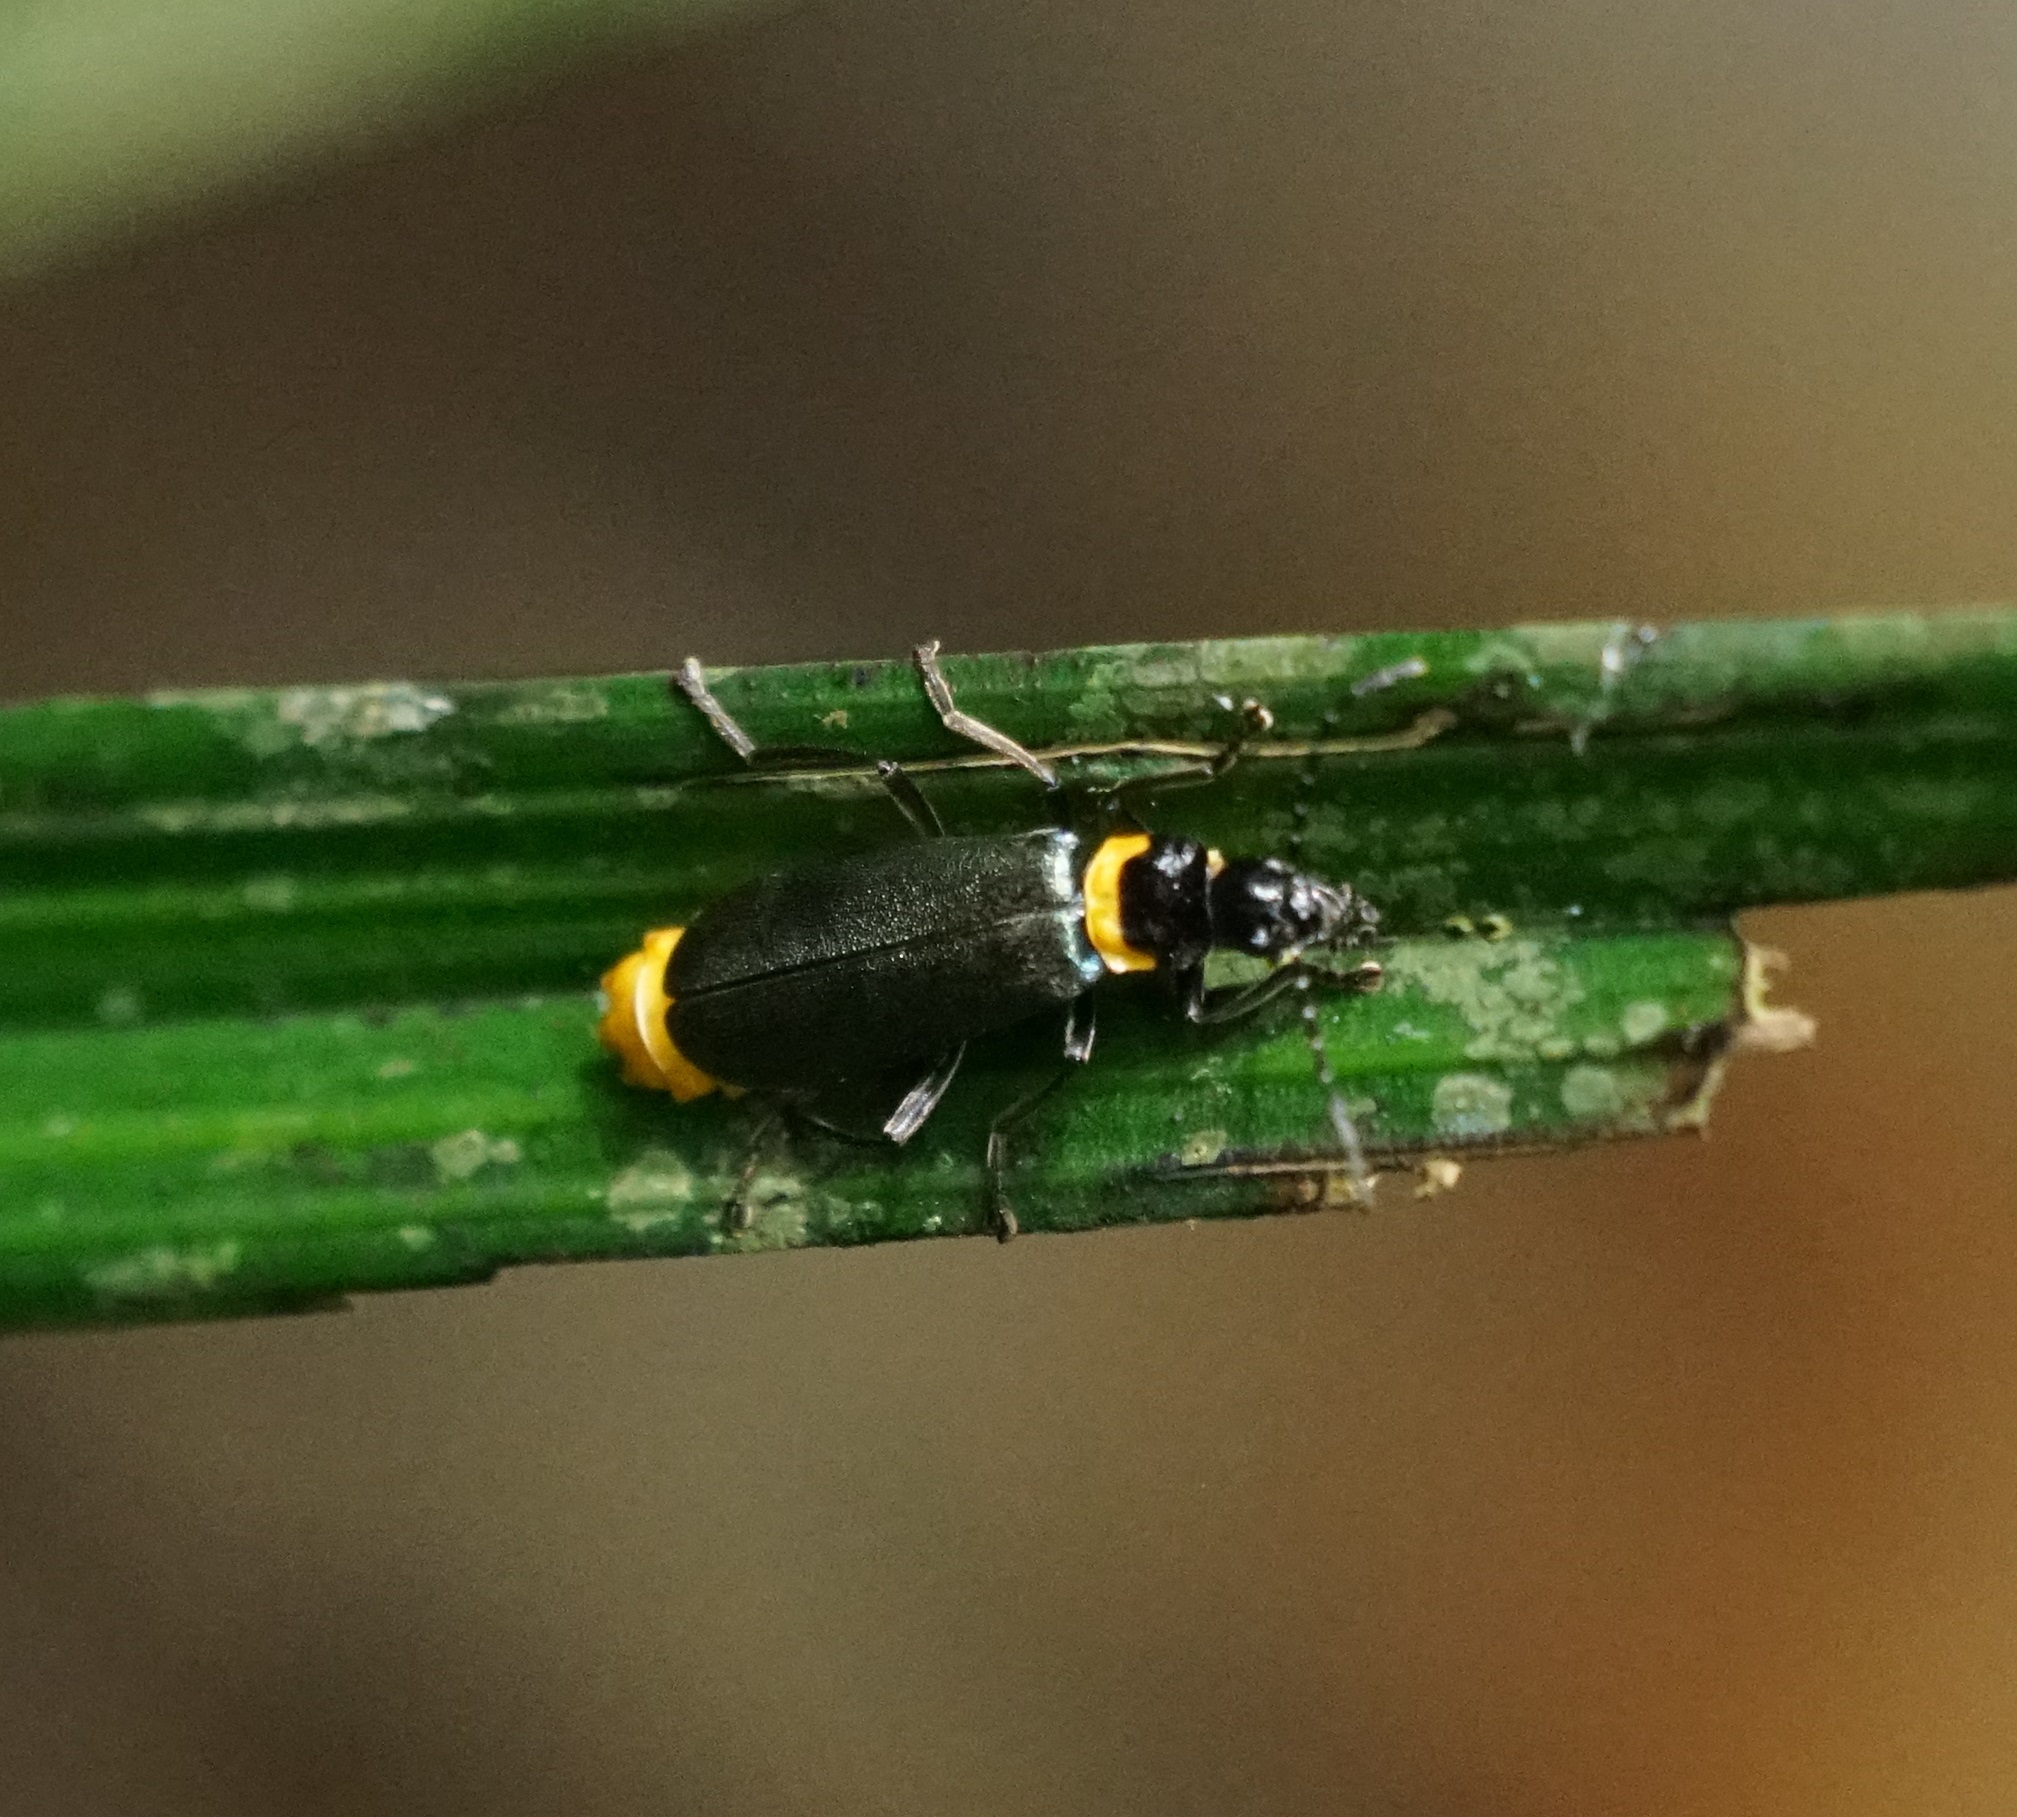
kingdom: Animalia
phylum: Arthropoda
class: Insecta
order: Coleoptera
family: Cantharidae
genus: Chauliognathus
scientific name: Chauliognathus
